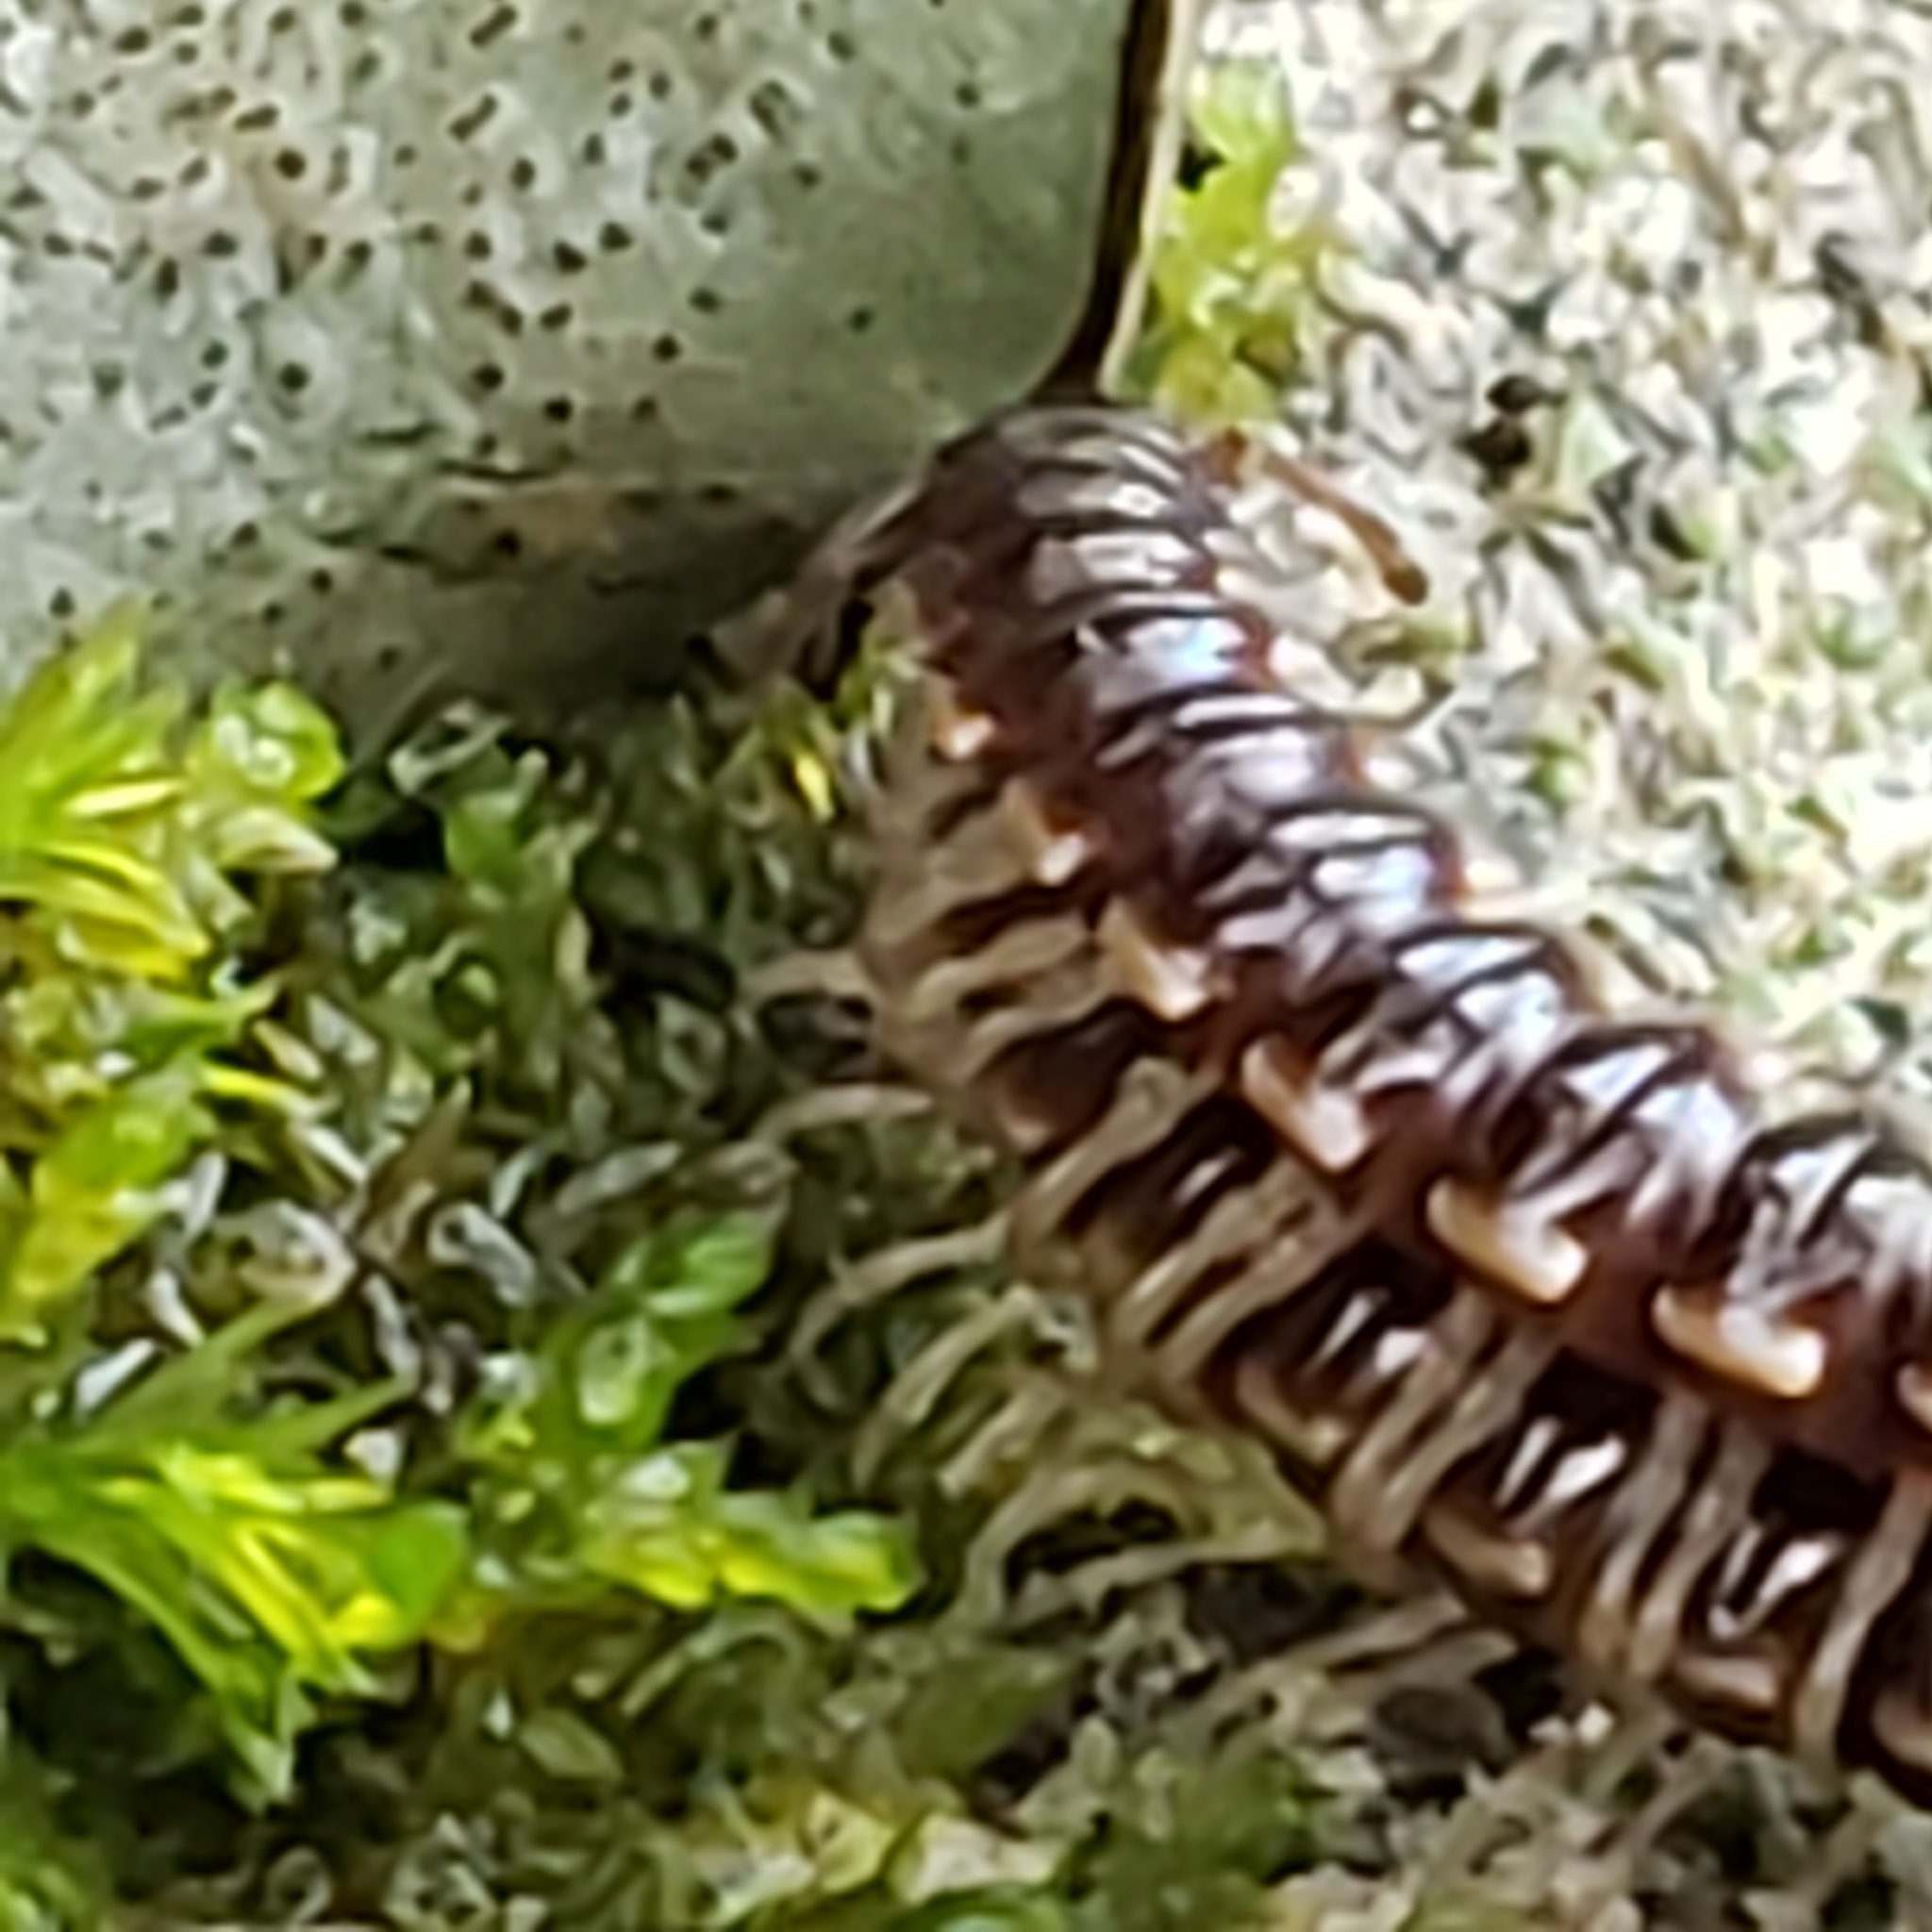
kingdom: Animalia
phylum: Arthropoda
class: Diplopoda
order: Polydesmida
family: Paradoxosomatidae
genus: Oxidus
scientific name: Oxidus gracilis
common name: Greenhouse millipede
